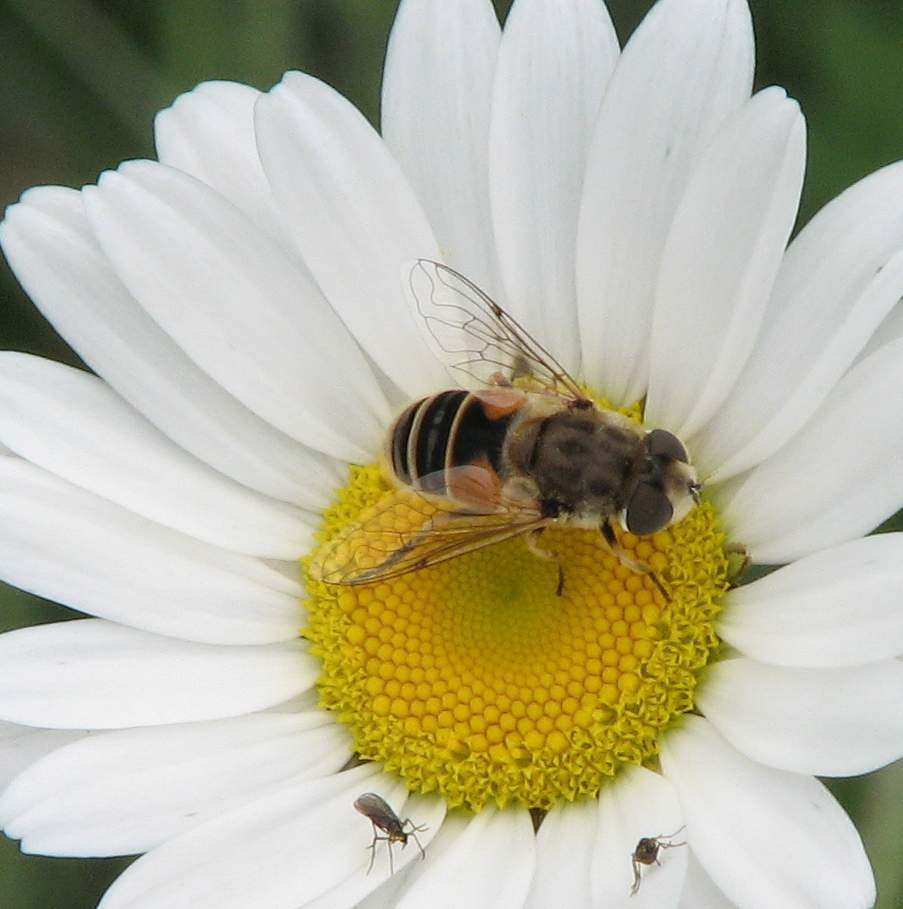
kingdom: Animalia
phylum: Arthropoda
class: Insecta
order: Diptera
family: Syrphidae
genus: Eristalis
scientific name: Eristalis arbustorum
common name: Hover fly
